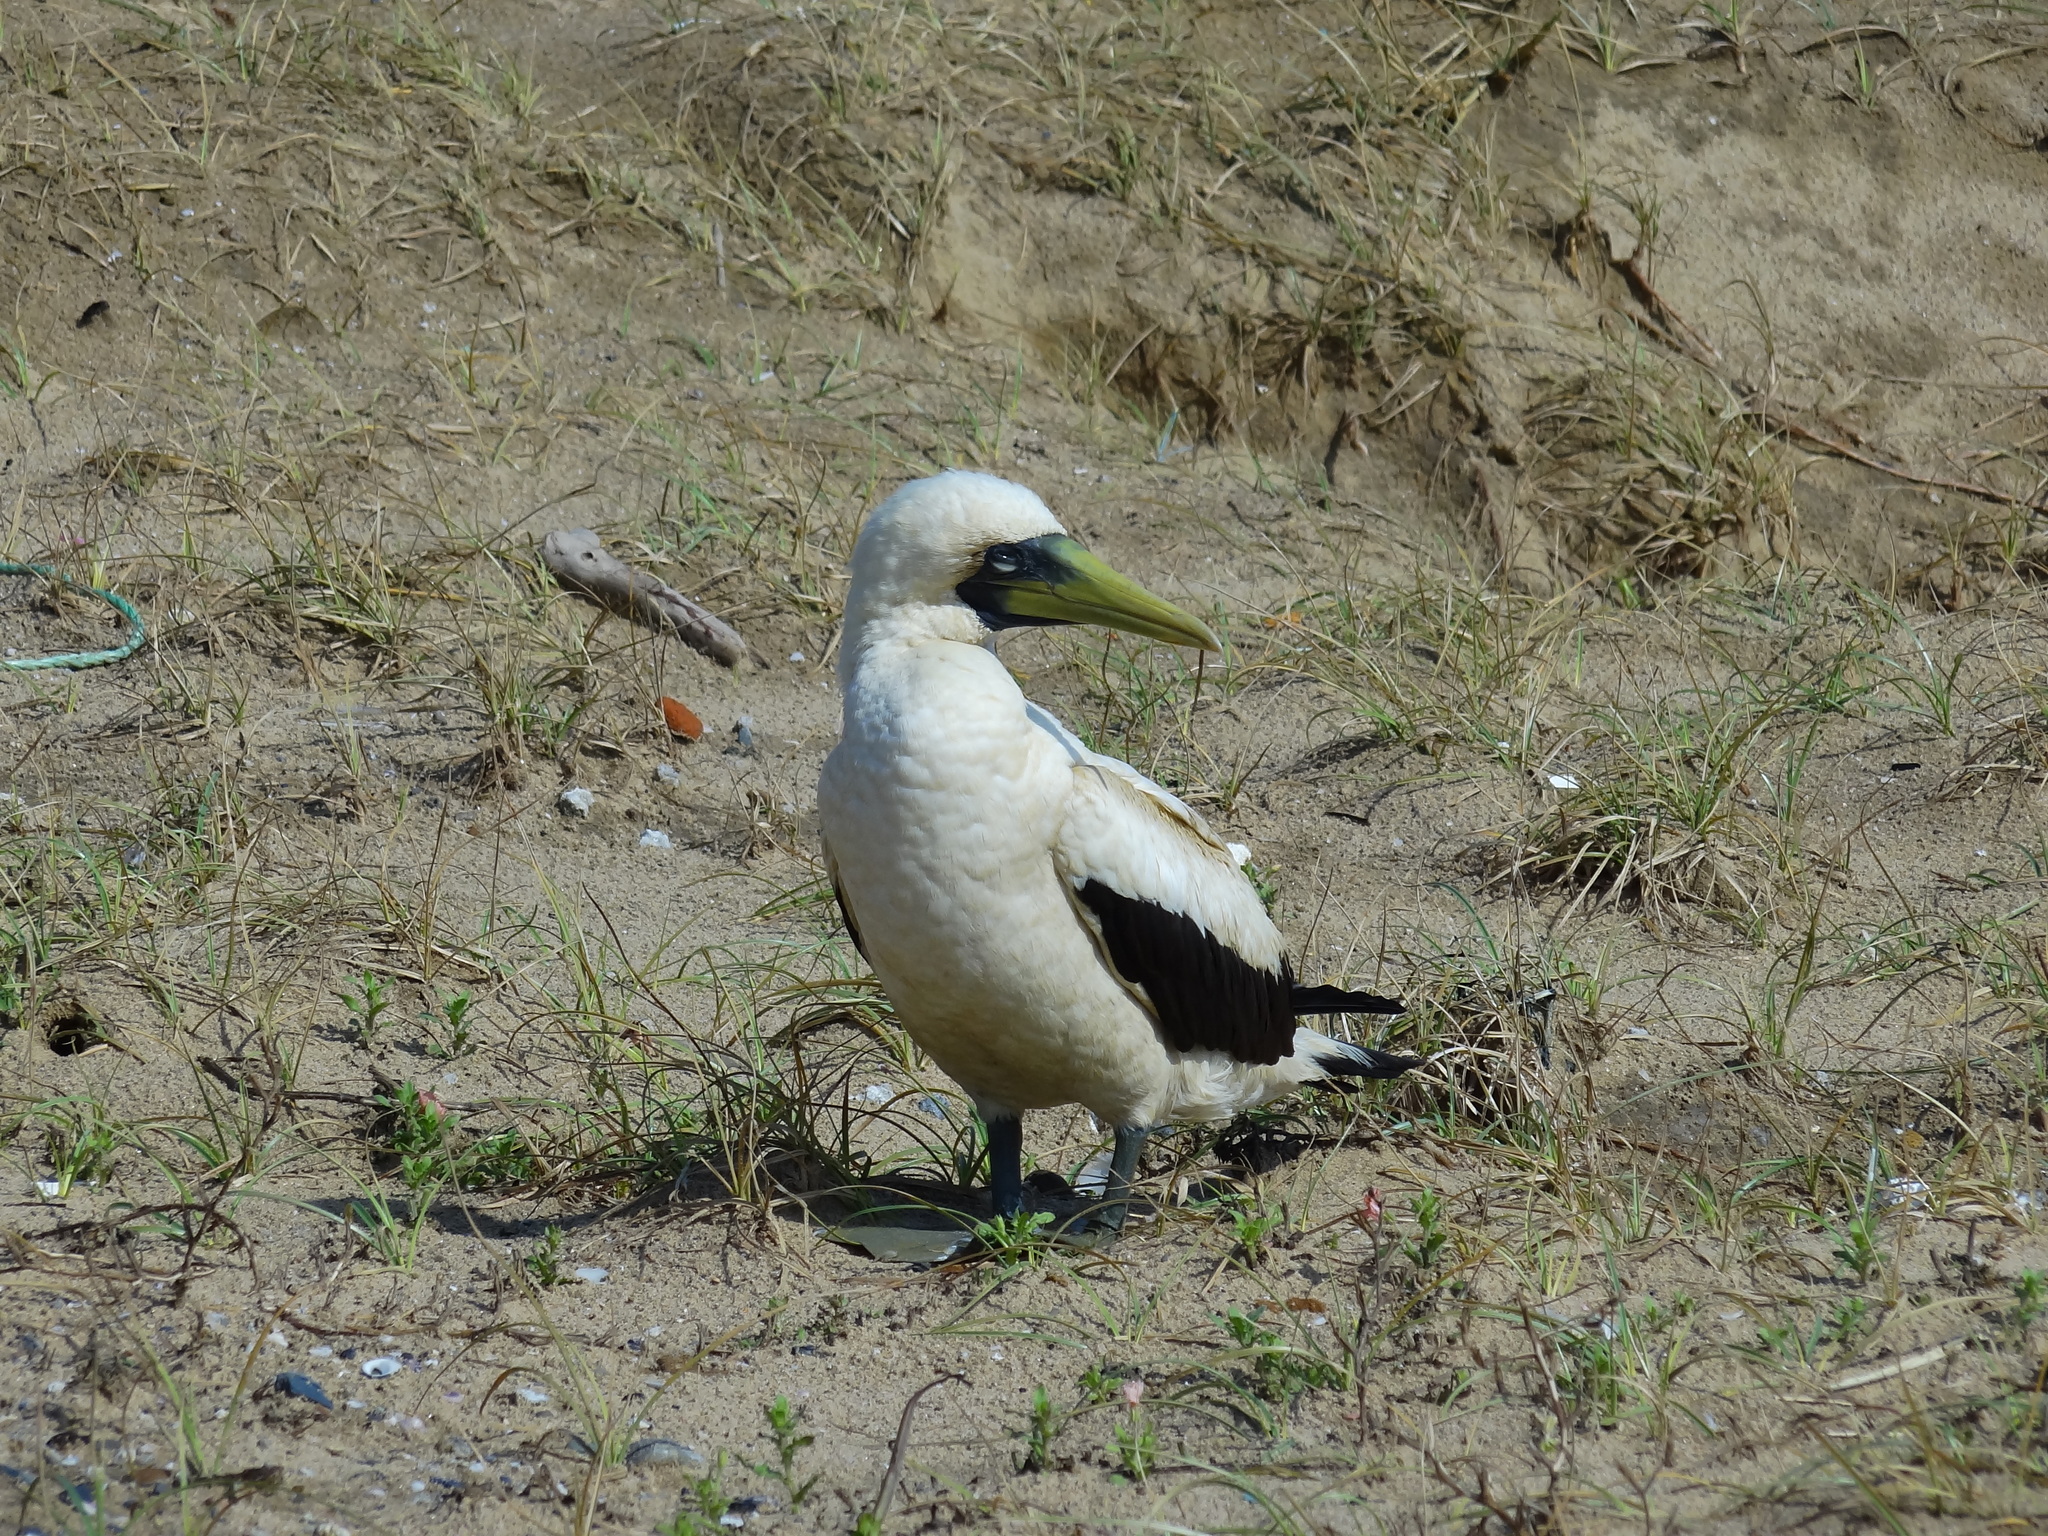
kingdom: Animalia
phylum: Chordata
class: Aves
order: Suliformes
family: Sulidae
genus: Sula
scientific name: Sula dactylatra
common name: Masked booby
